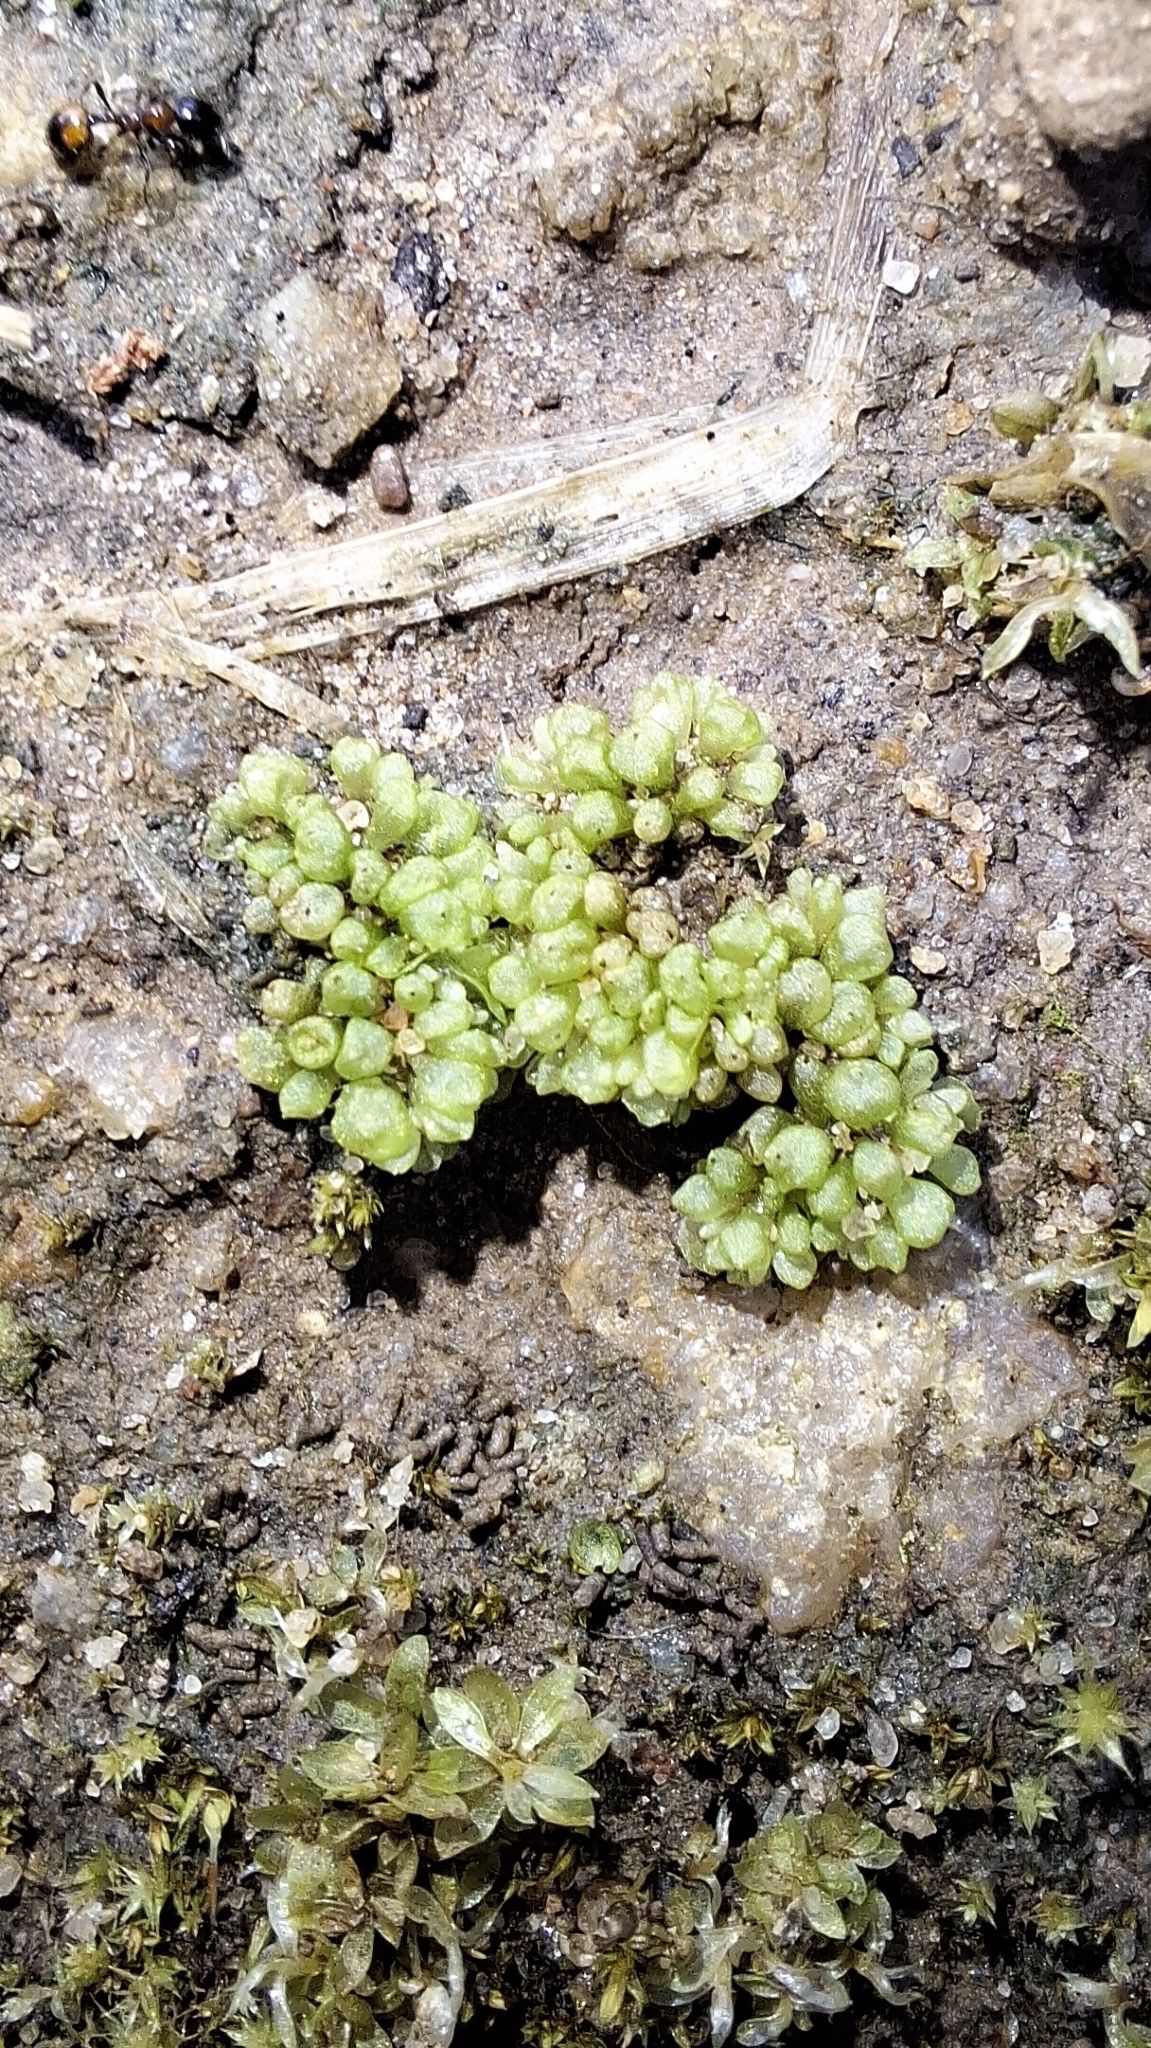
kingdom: Plantae
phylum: Marchantiophyta
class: Marchantiopsida
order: Sphaerocarpales
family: Sphaerocarpaceae
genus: Sphaerocarpos
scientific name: Sphaerocarpos texanus
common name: Texas balloonwort
